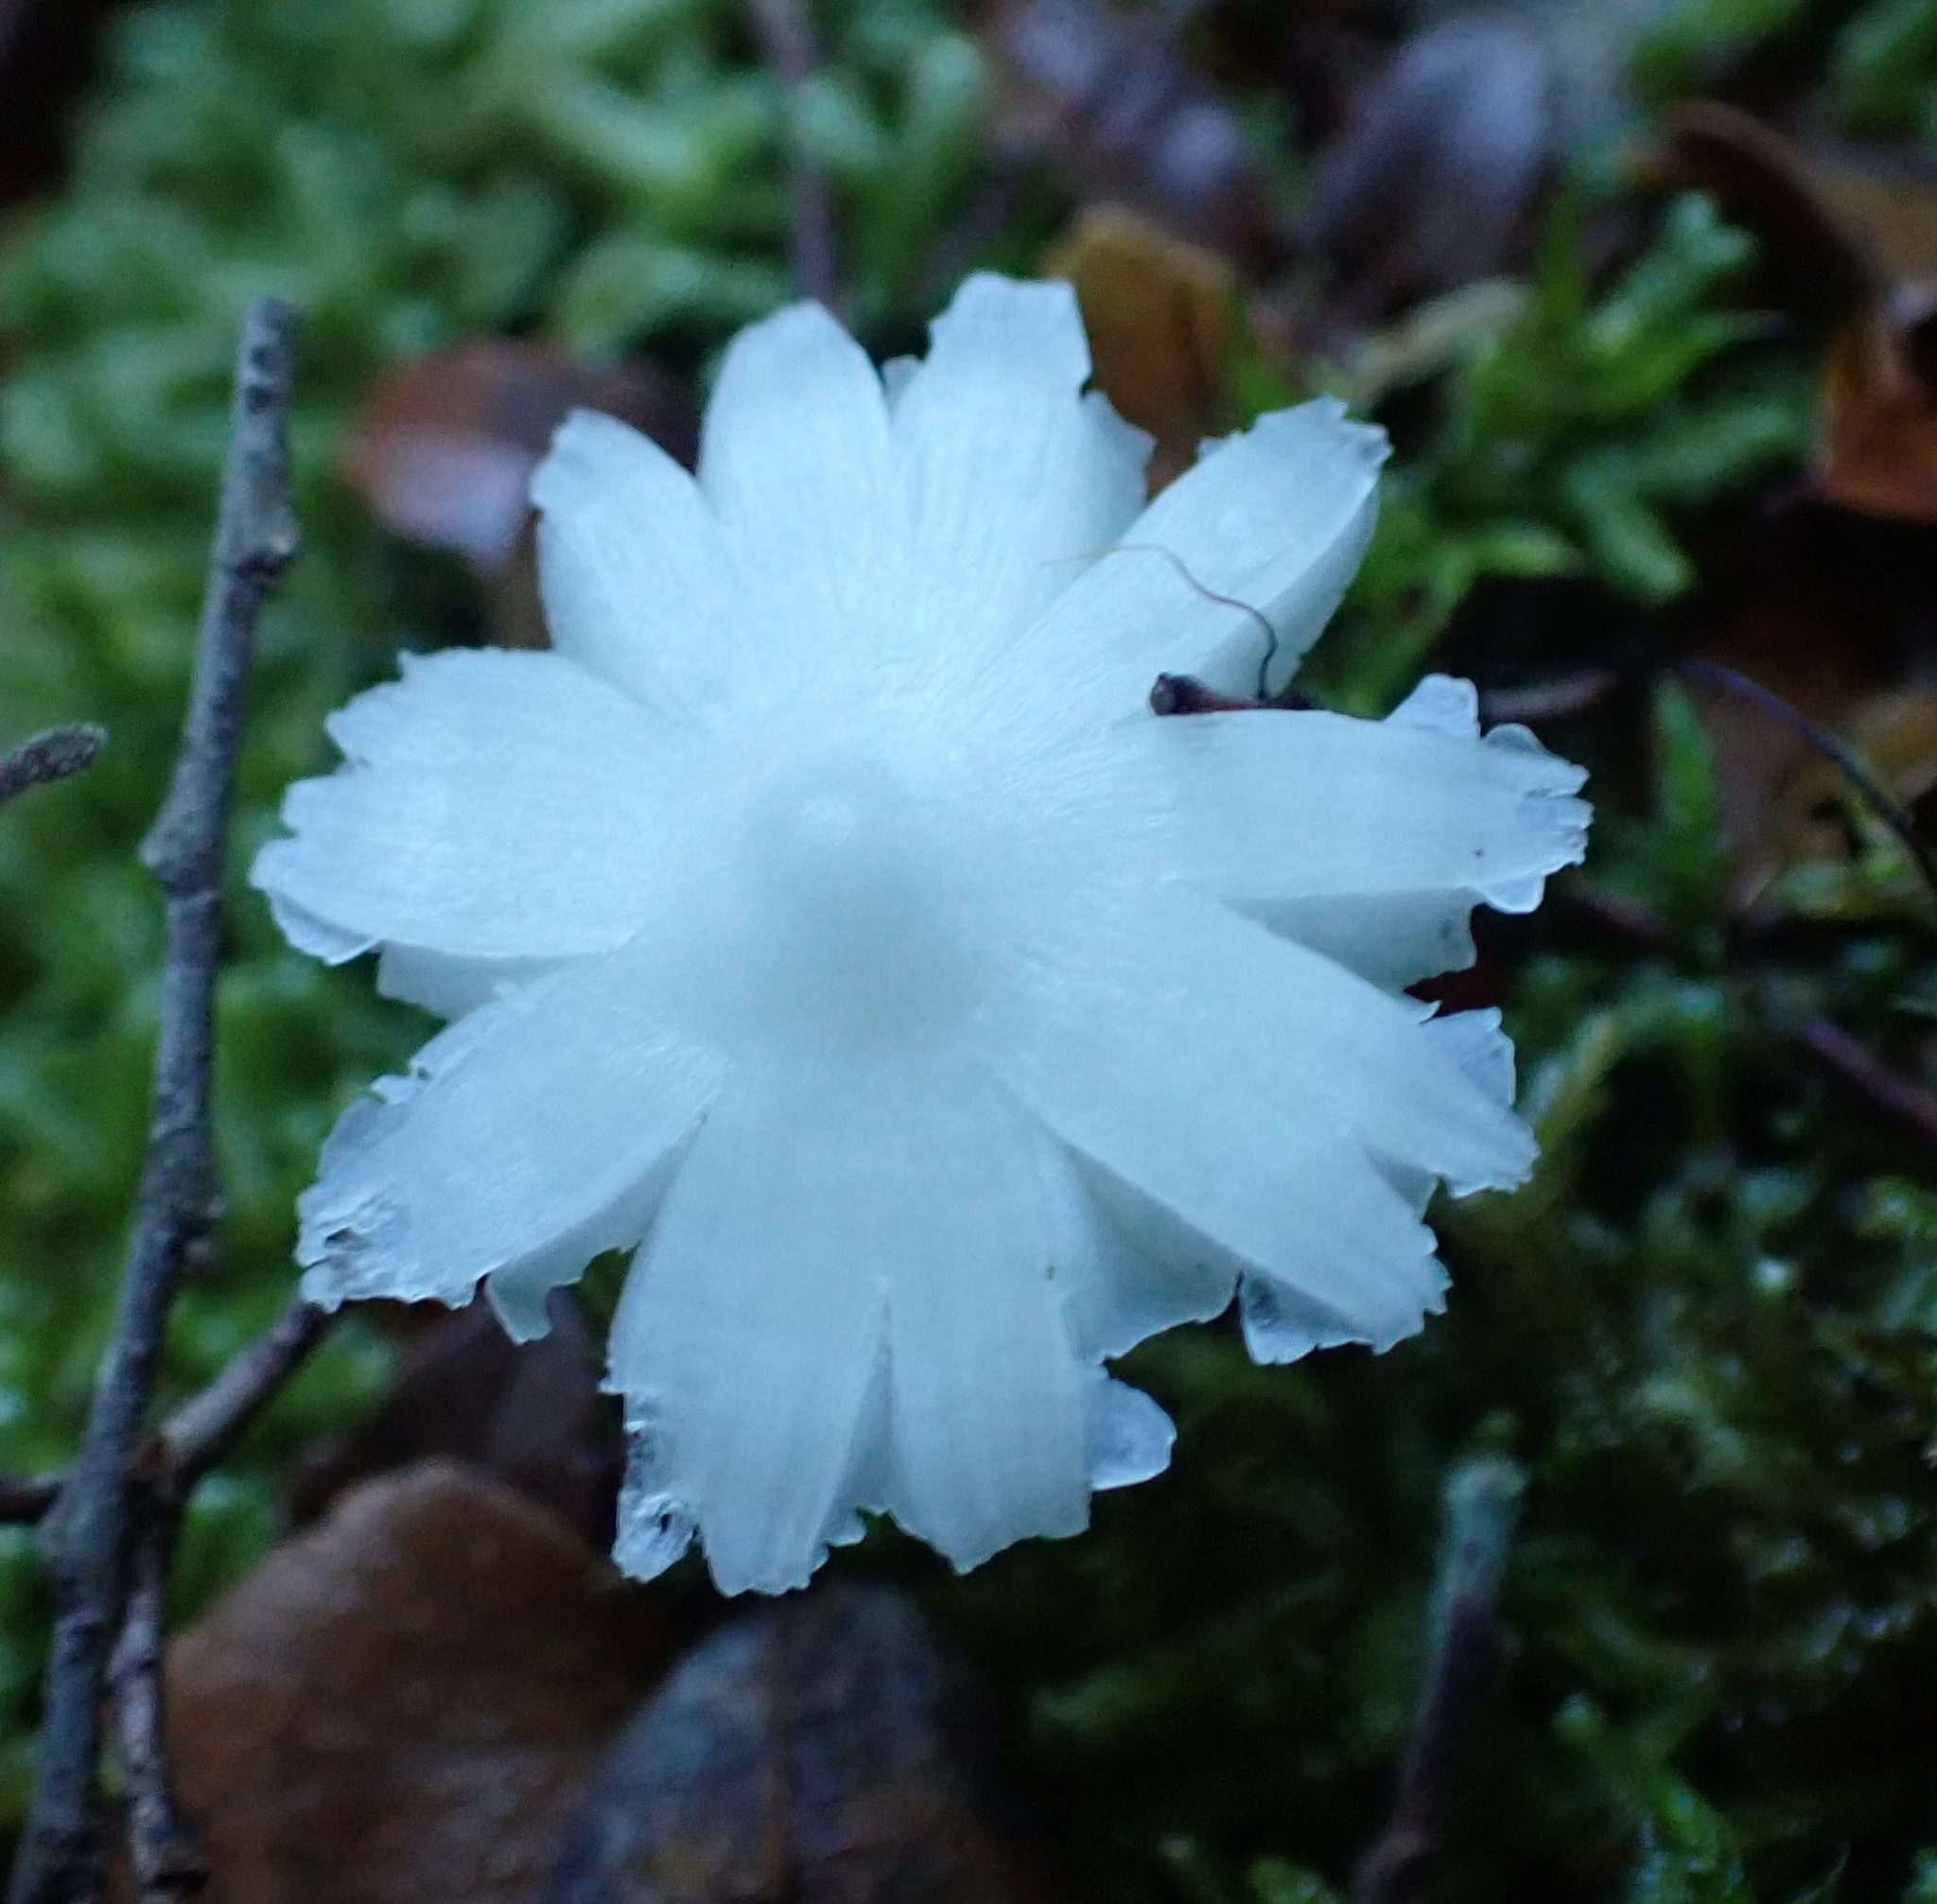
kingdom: Fungi
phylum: Basidiomycota
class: Agaricomycetes
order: Agaricales
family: Hygrophoraceae
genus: Humidicutis
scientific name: Humidicutis mavis
